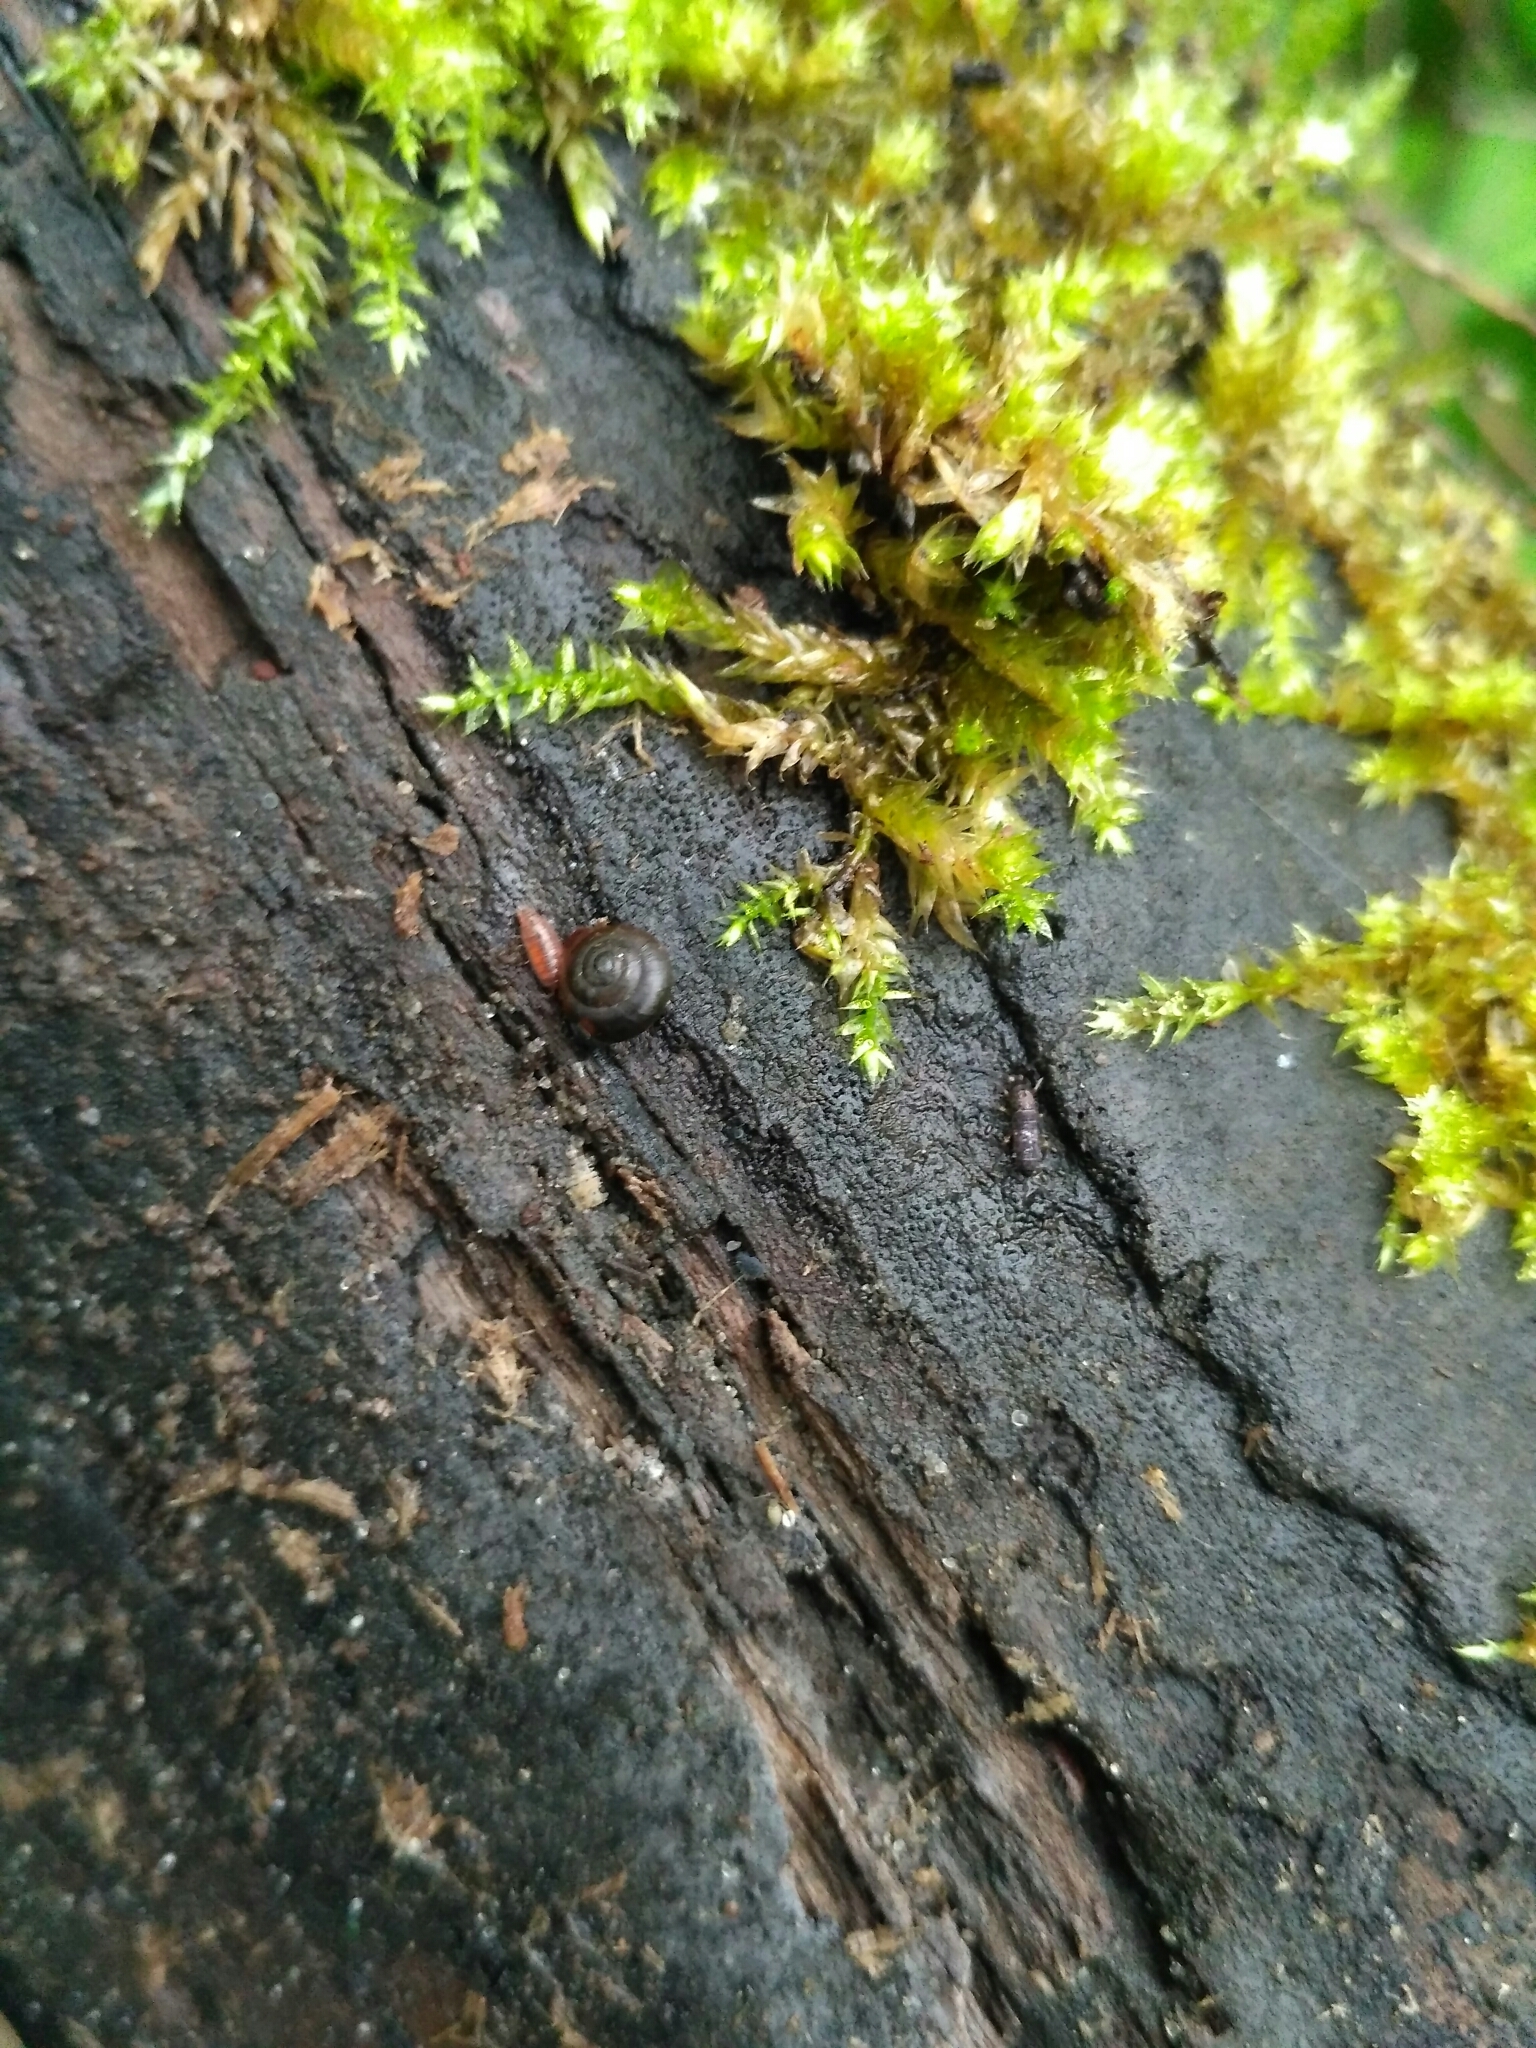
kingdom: Animalia
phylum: Mollusca
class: Gastropoda
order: Stylommatophora
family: Gastrodontidae
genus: Zonitoides
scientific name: Zonitoides nitidus
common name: Shiny glass snail
